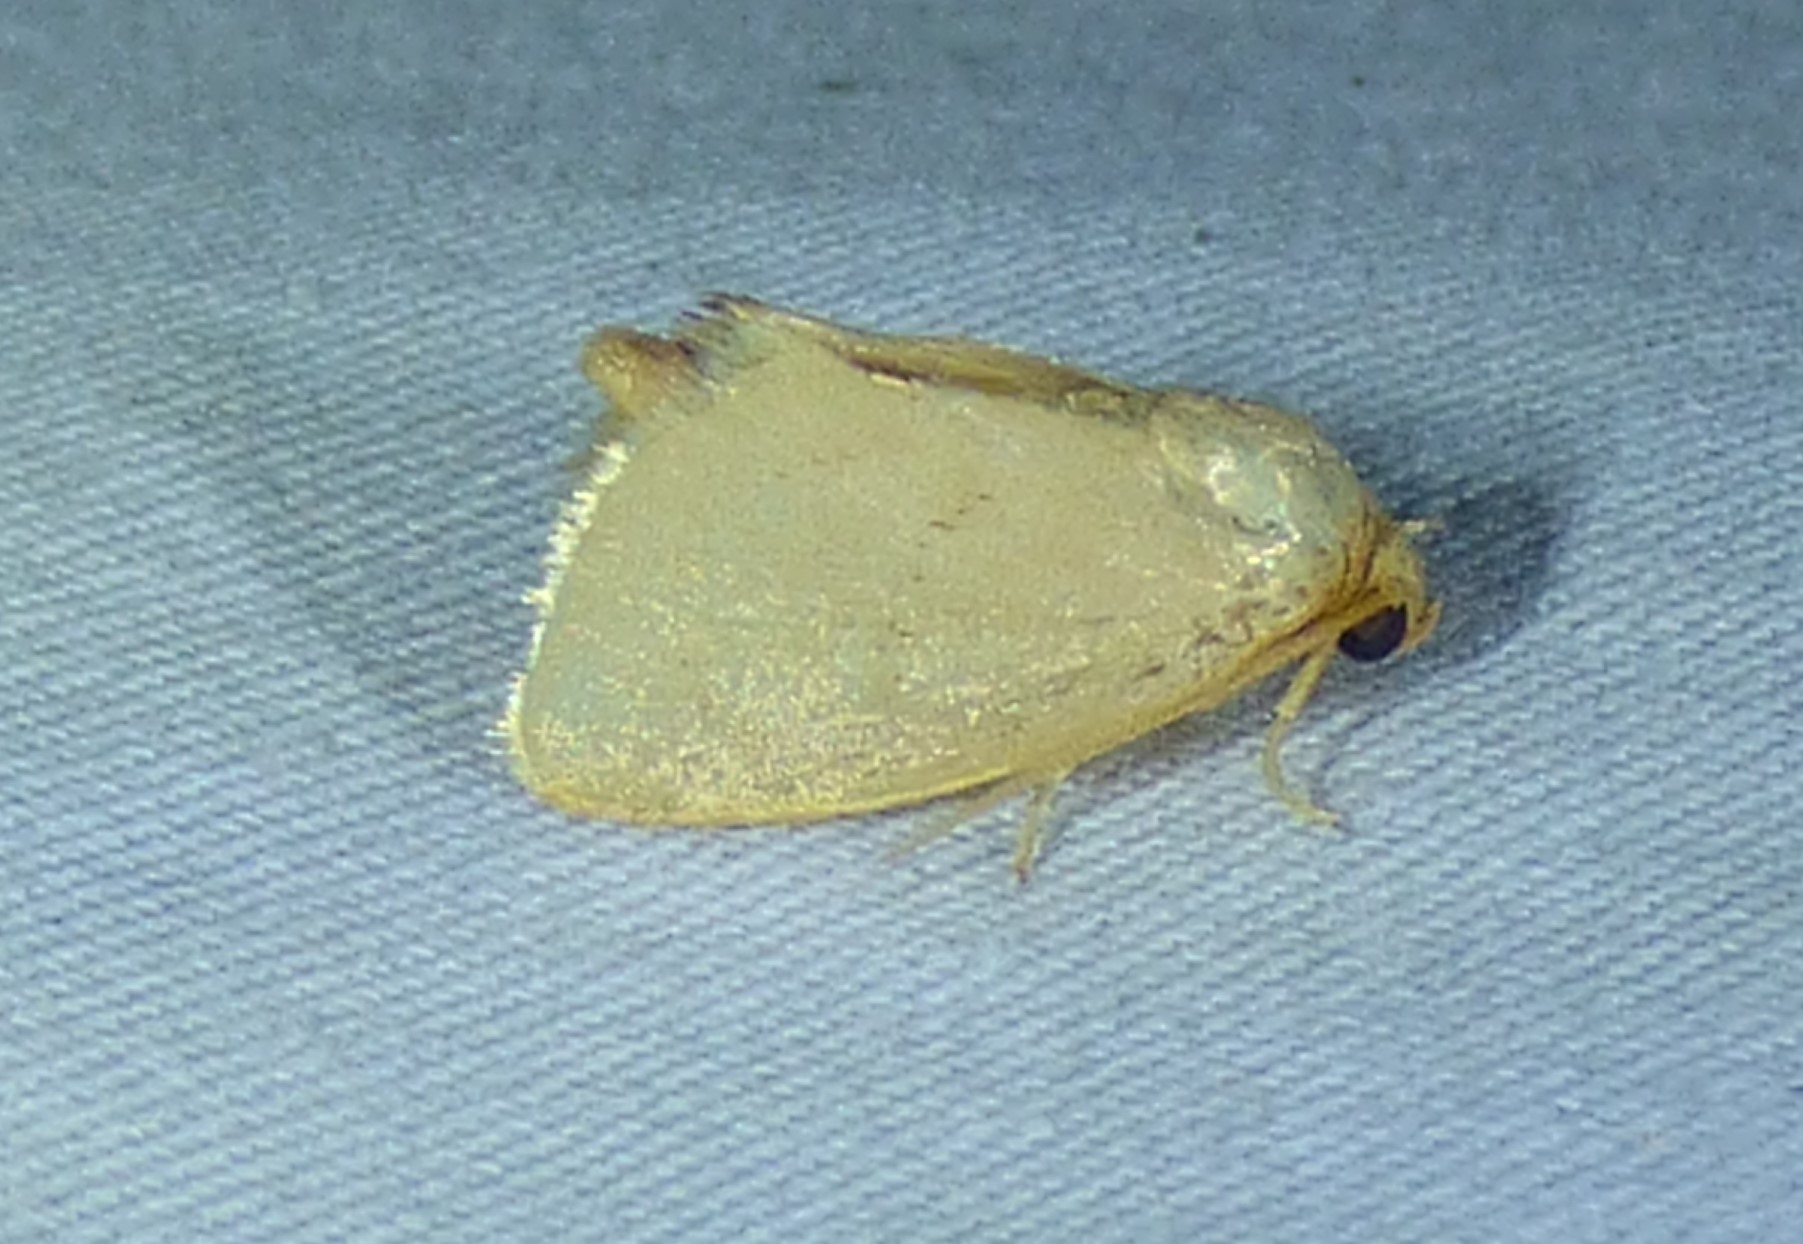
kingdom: Animalia
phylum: Arthropoda
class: Insecta
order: Lepidoptera
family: Limacodidae
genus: Tortricidia
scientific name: Tortricidia pallida
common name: Red-crossed button slug moth
